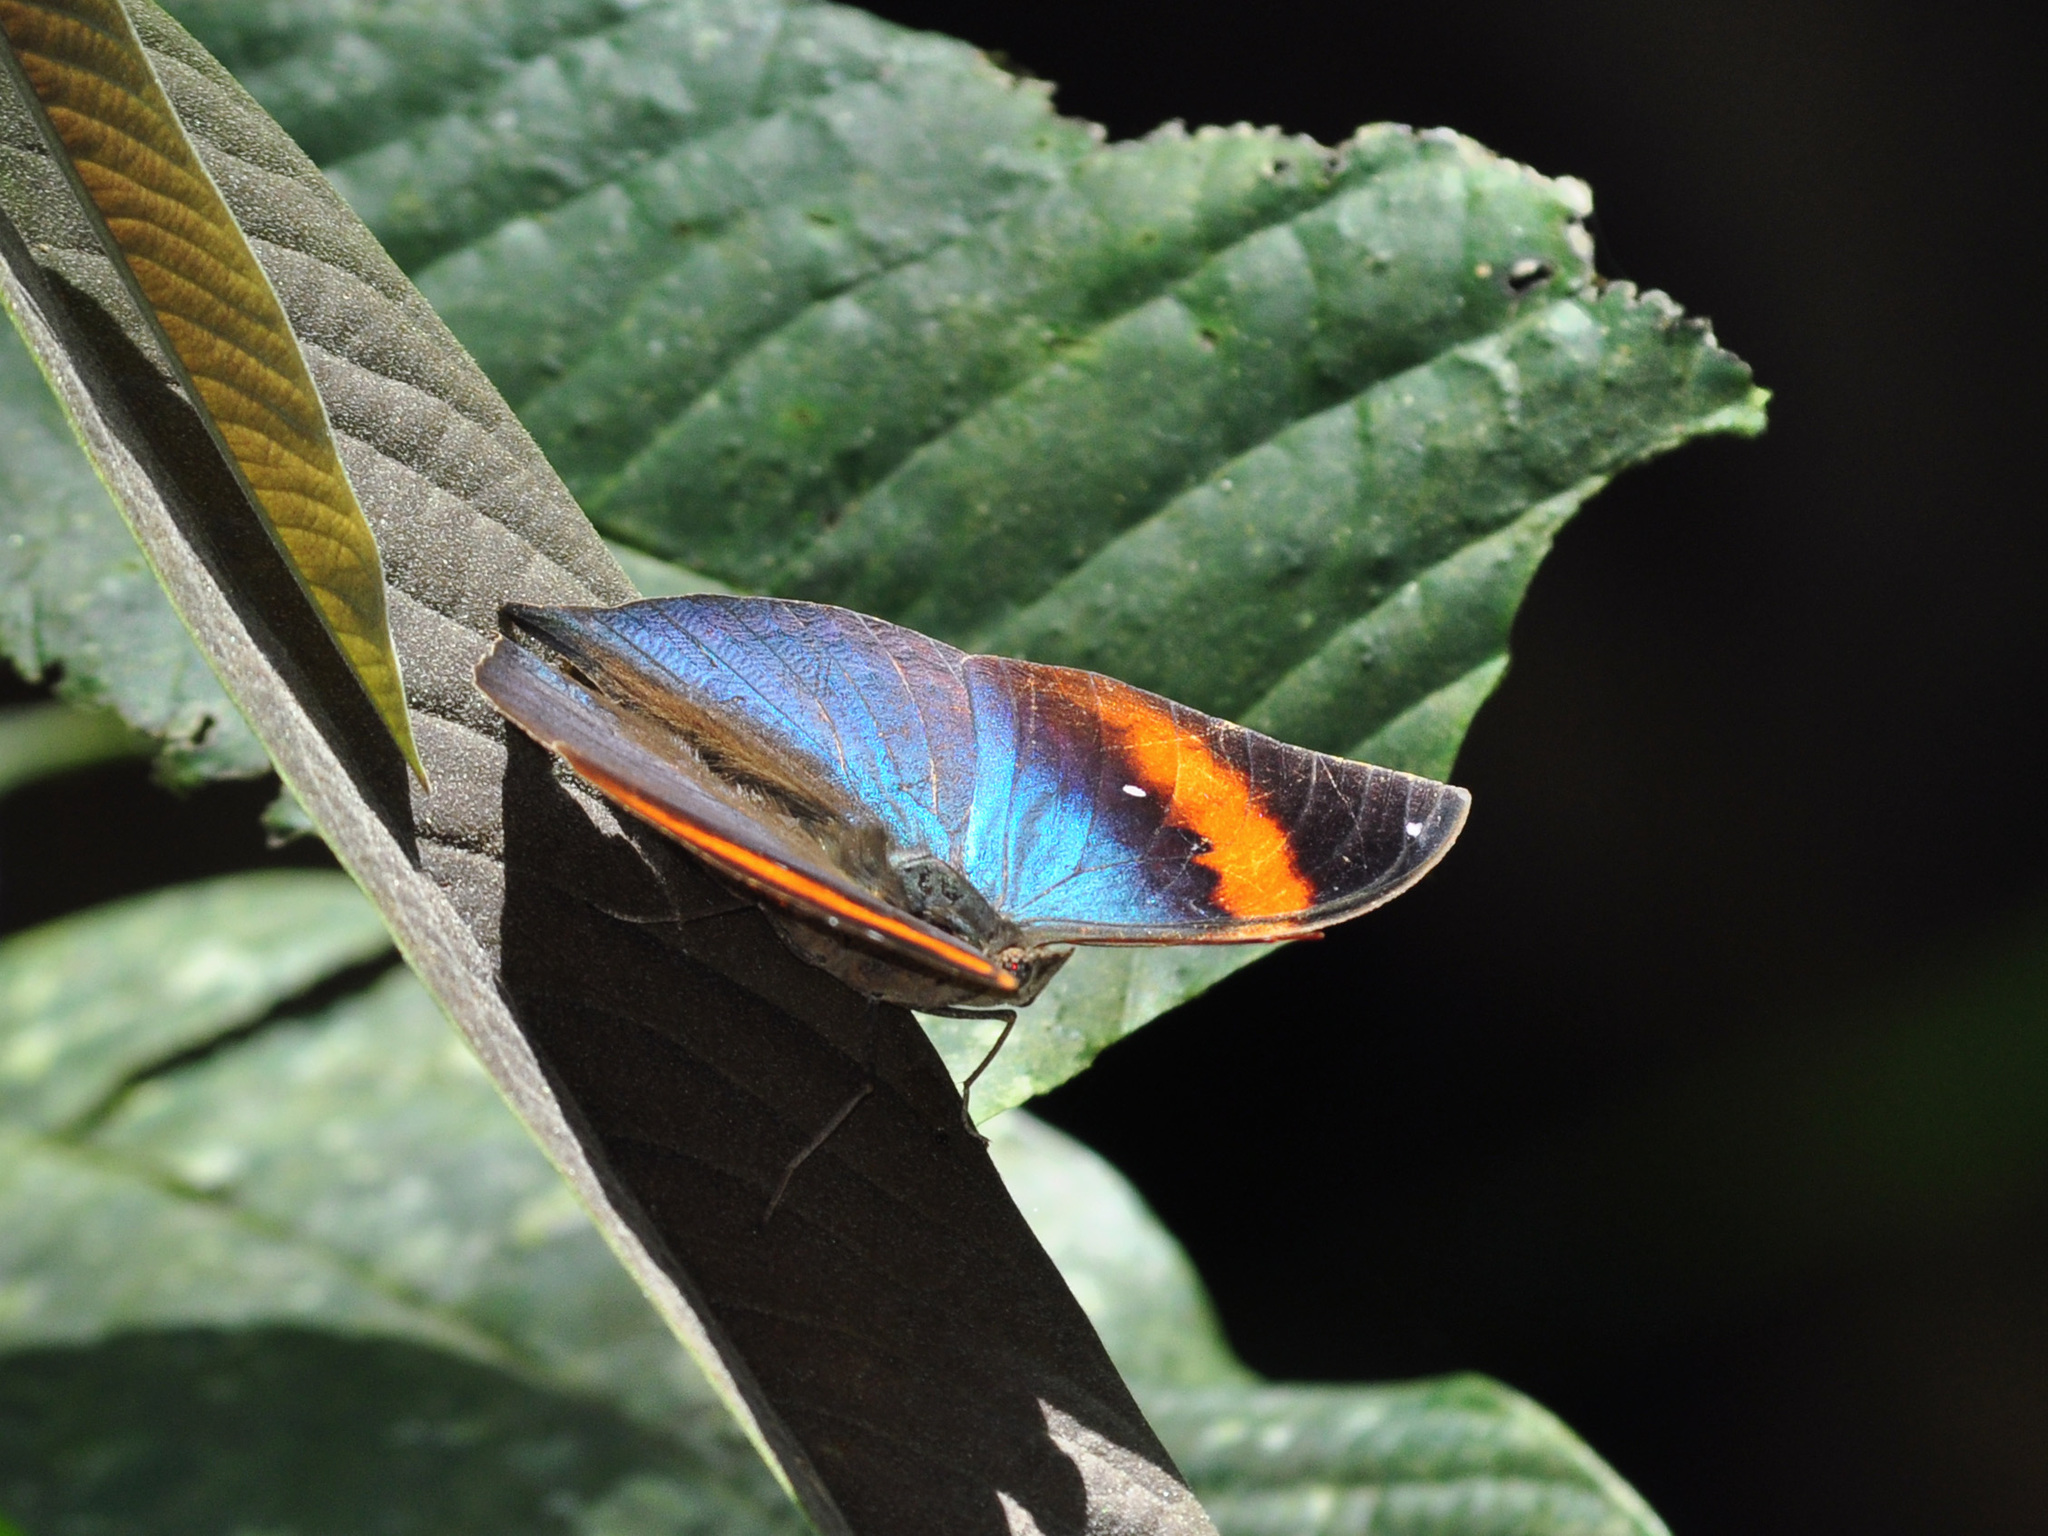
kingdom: Animalia
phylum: Arthropoda
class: Insecta
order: Lepidoptera
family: Nymphalidae
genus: Kallima
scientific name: Kallima paralekta
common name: Indian leafwing
